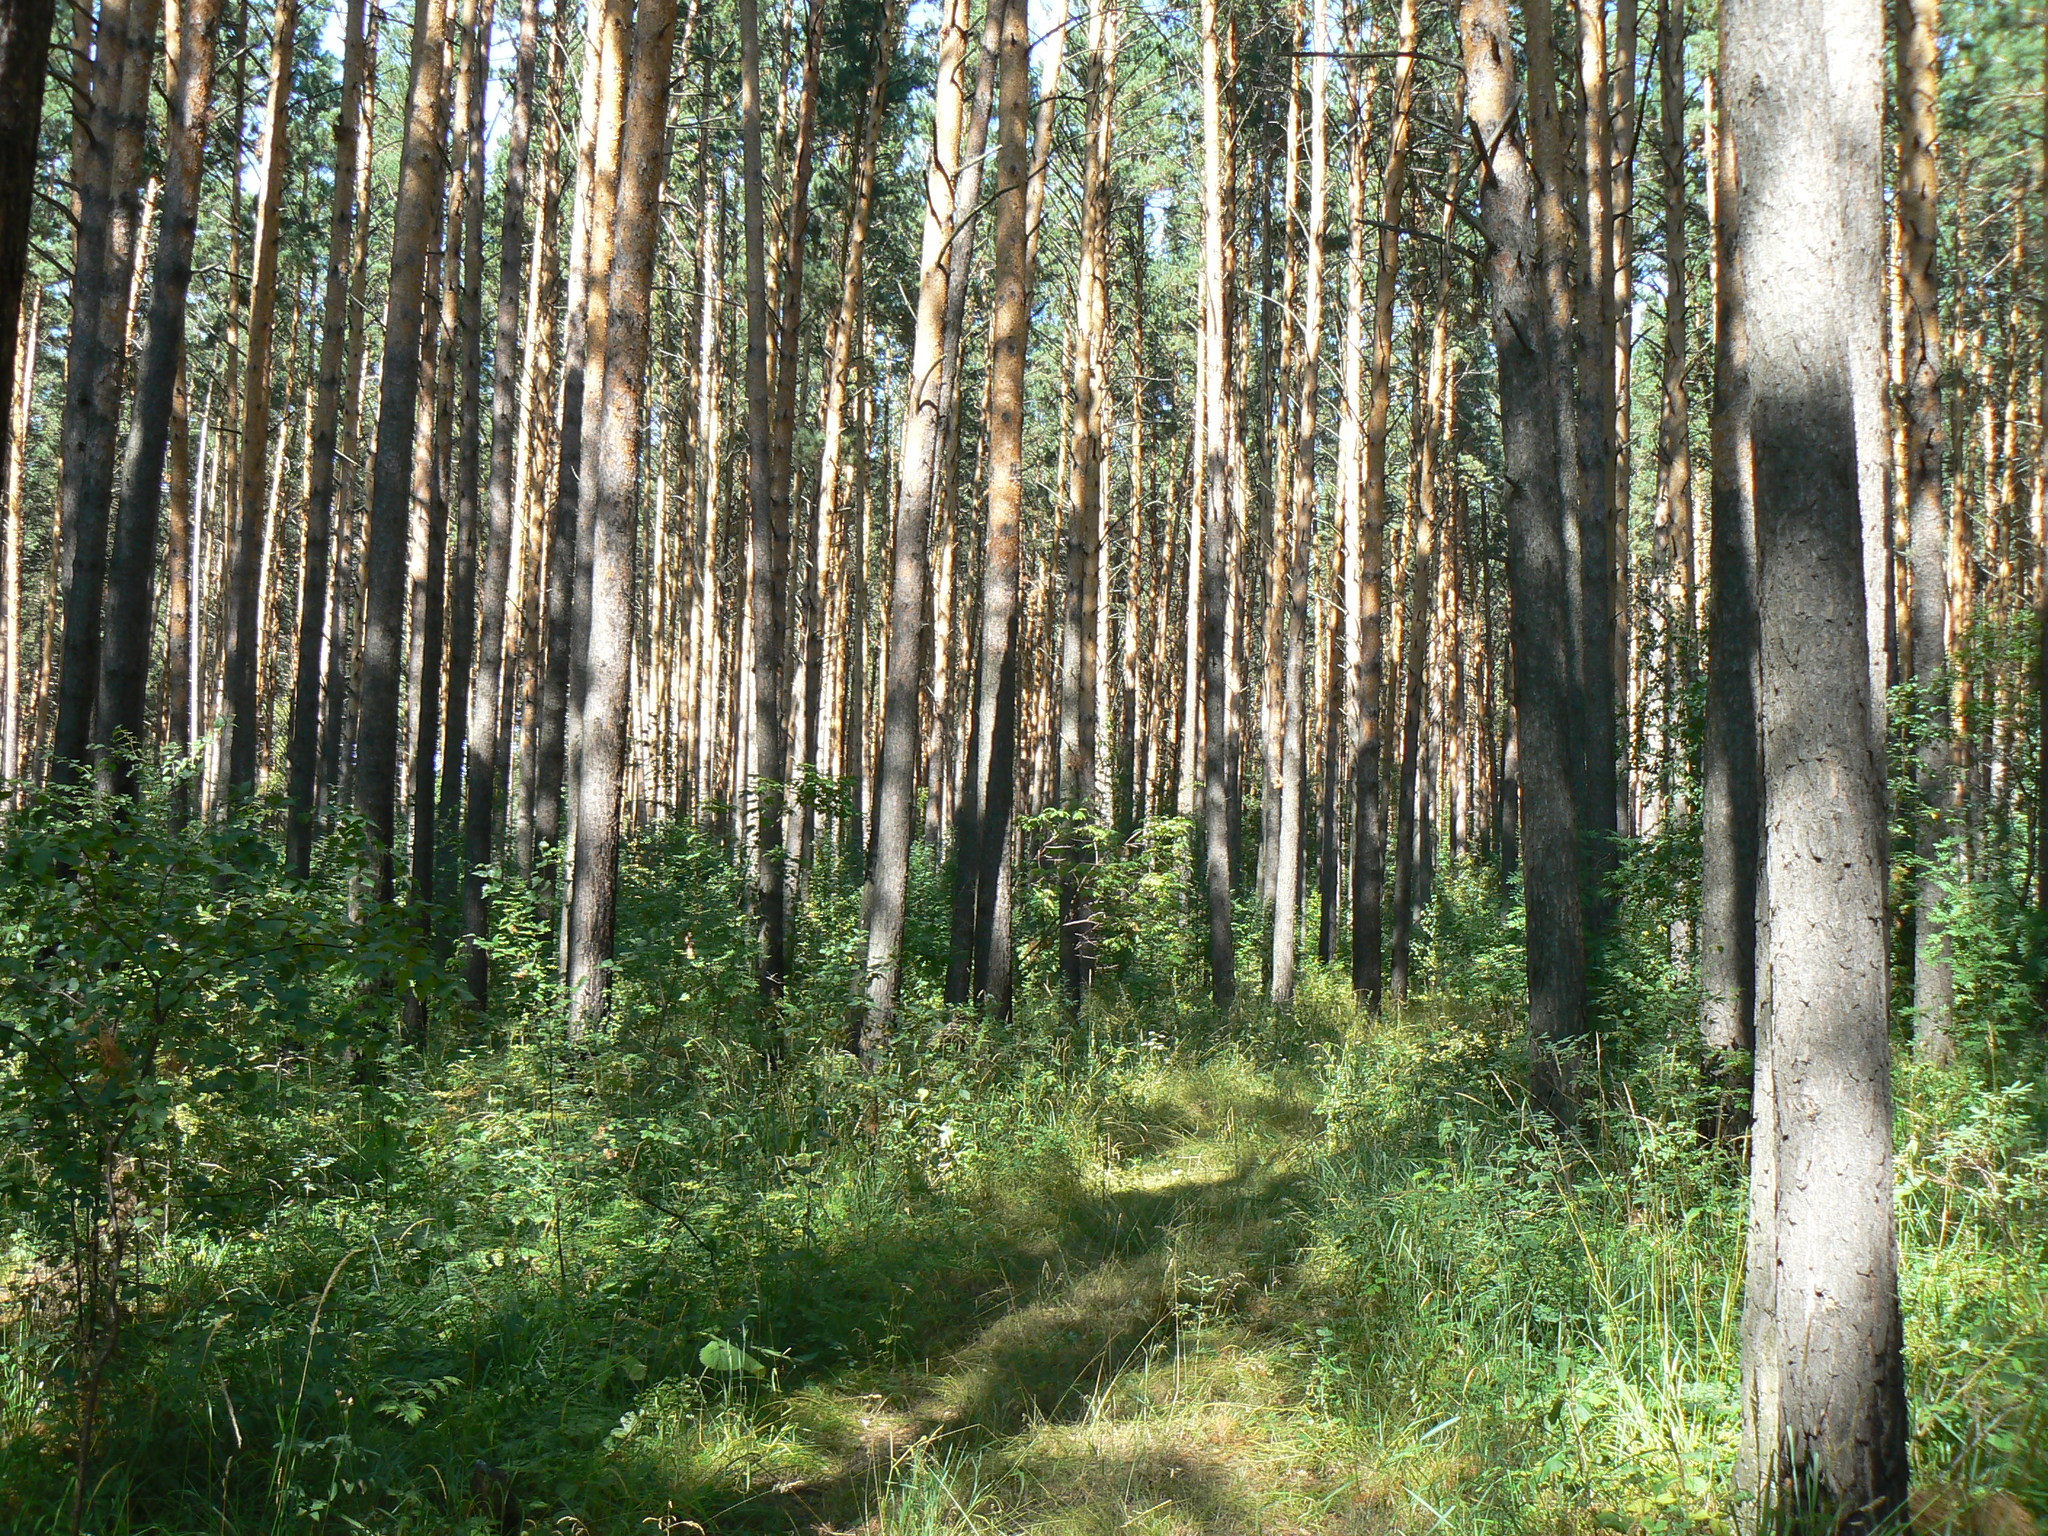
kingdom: Plantae
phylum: Tracheophyta
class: Pinopsida
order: Pinales
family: Pinaceae
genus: Pinus
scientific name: Pinus sylvestris
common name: Scots pine
